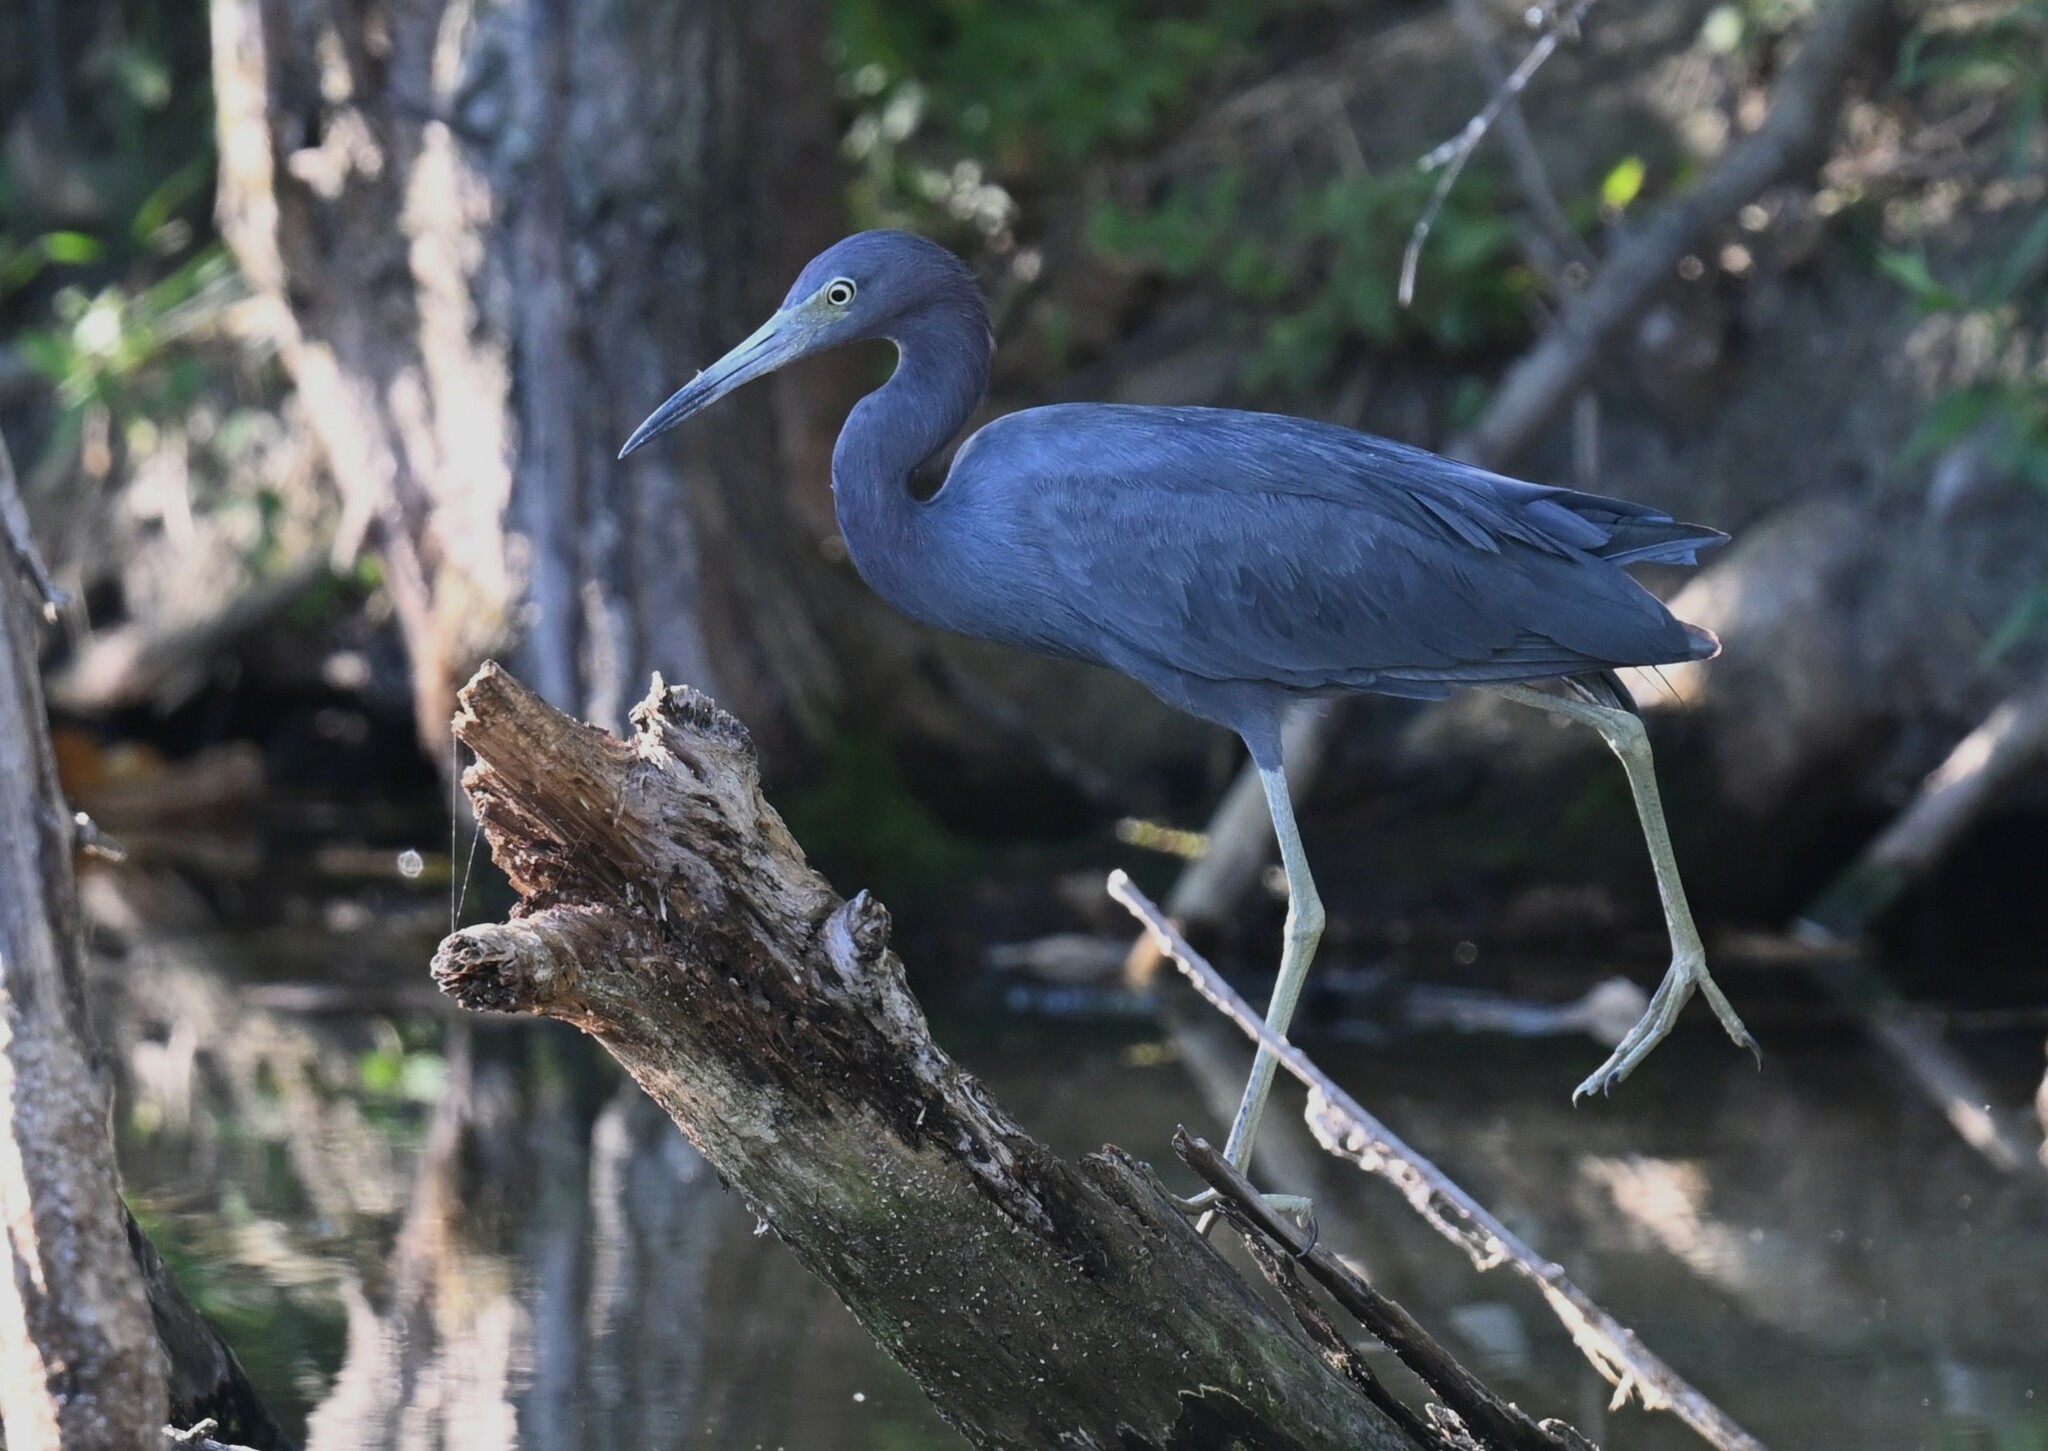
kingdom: Animalia
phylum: Chordata
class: Aves
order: Pelecaniformes
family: Ardeidae
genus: Egretta
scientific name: Egretta caerulea
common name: Little blue heron
